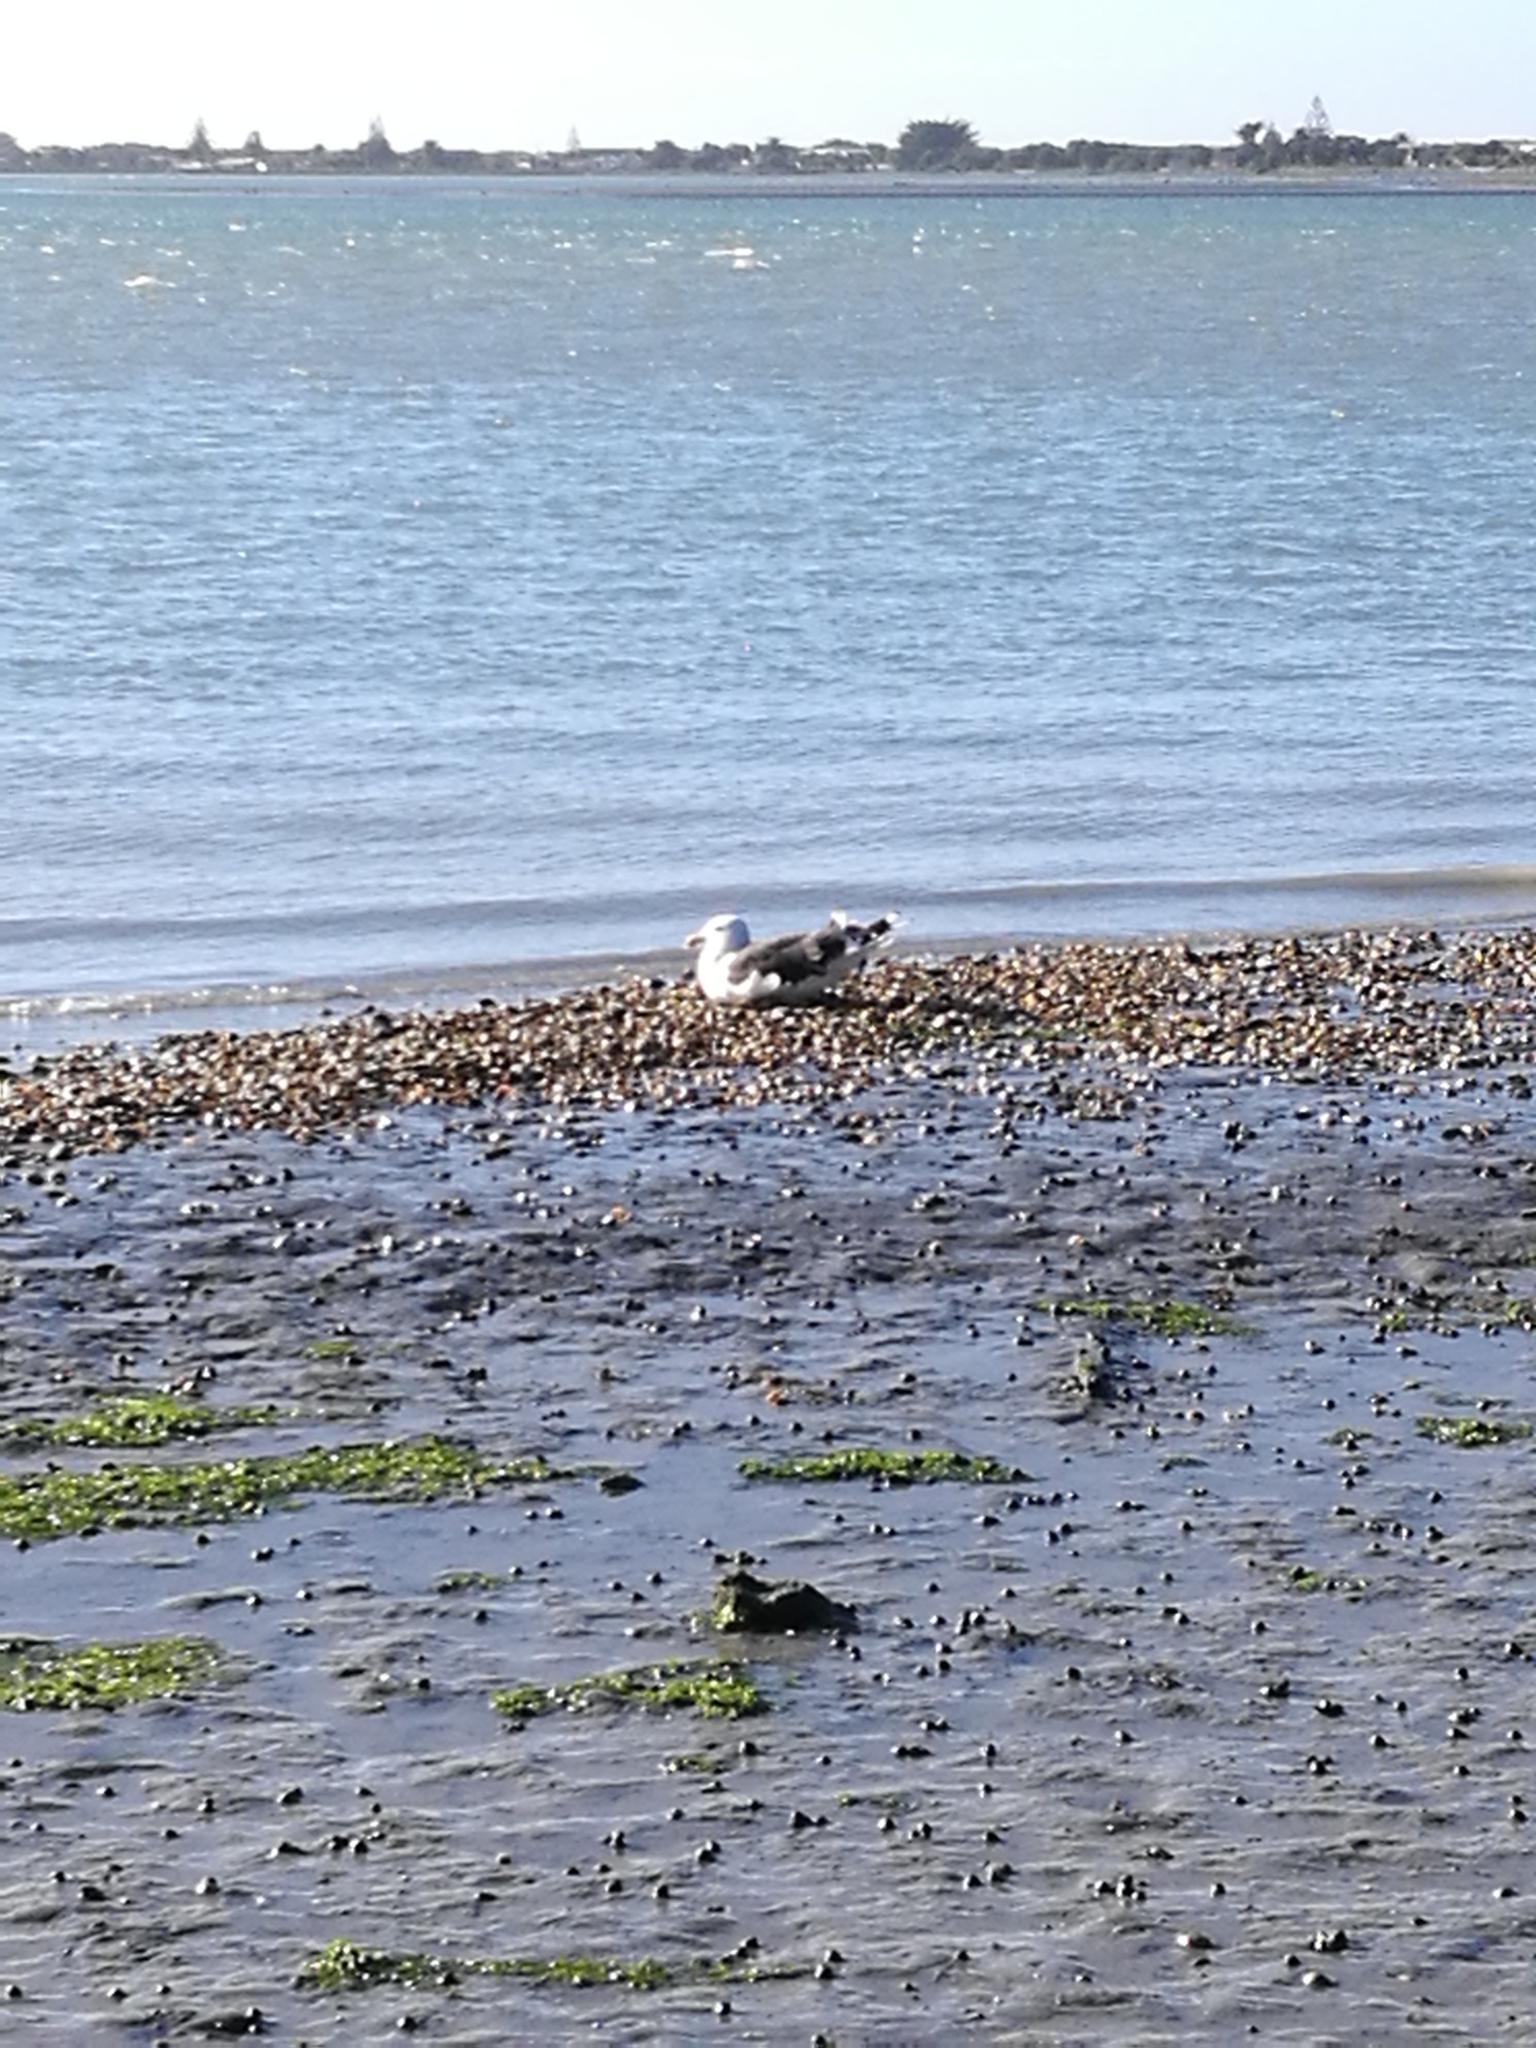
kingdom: Animalia
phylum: Chordata
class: Aves
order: Charadriiformes
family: Laridae
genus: Larus
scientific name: Larus dominicanus
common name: Kelp gull
